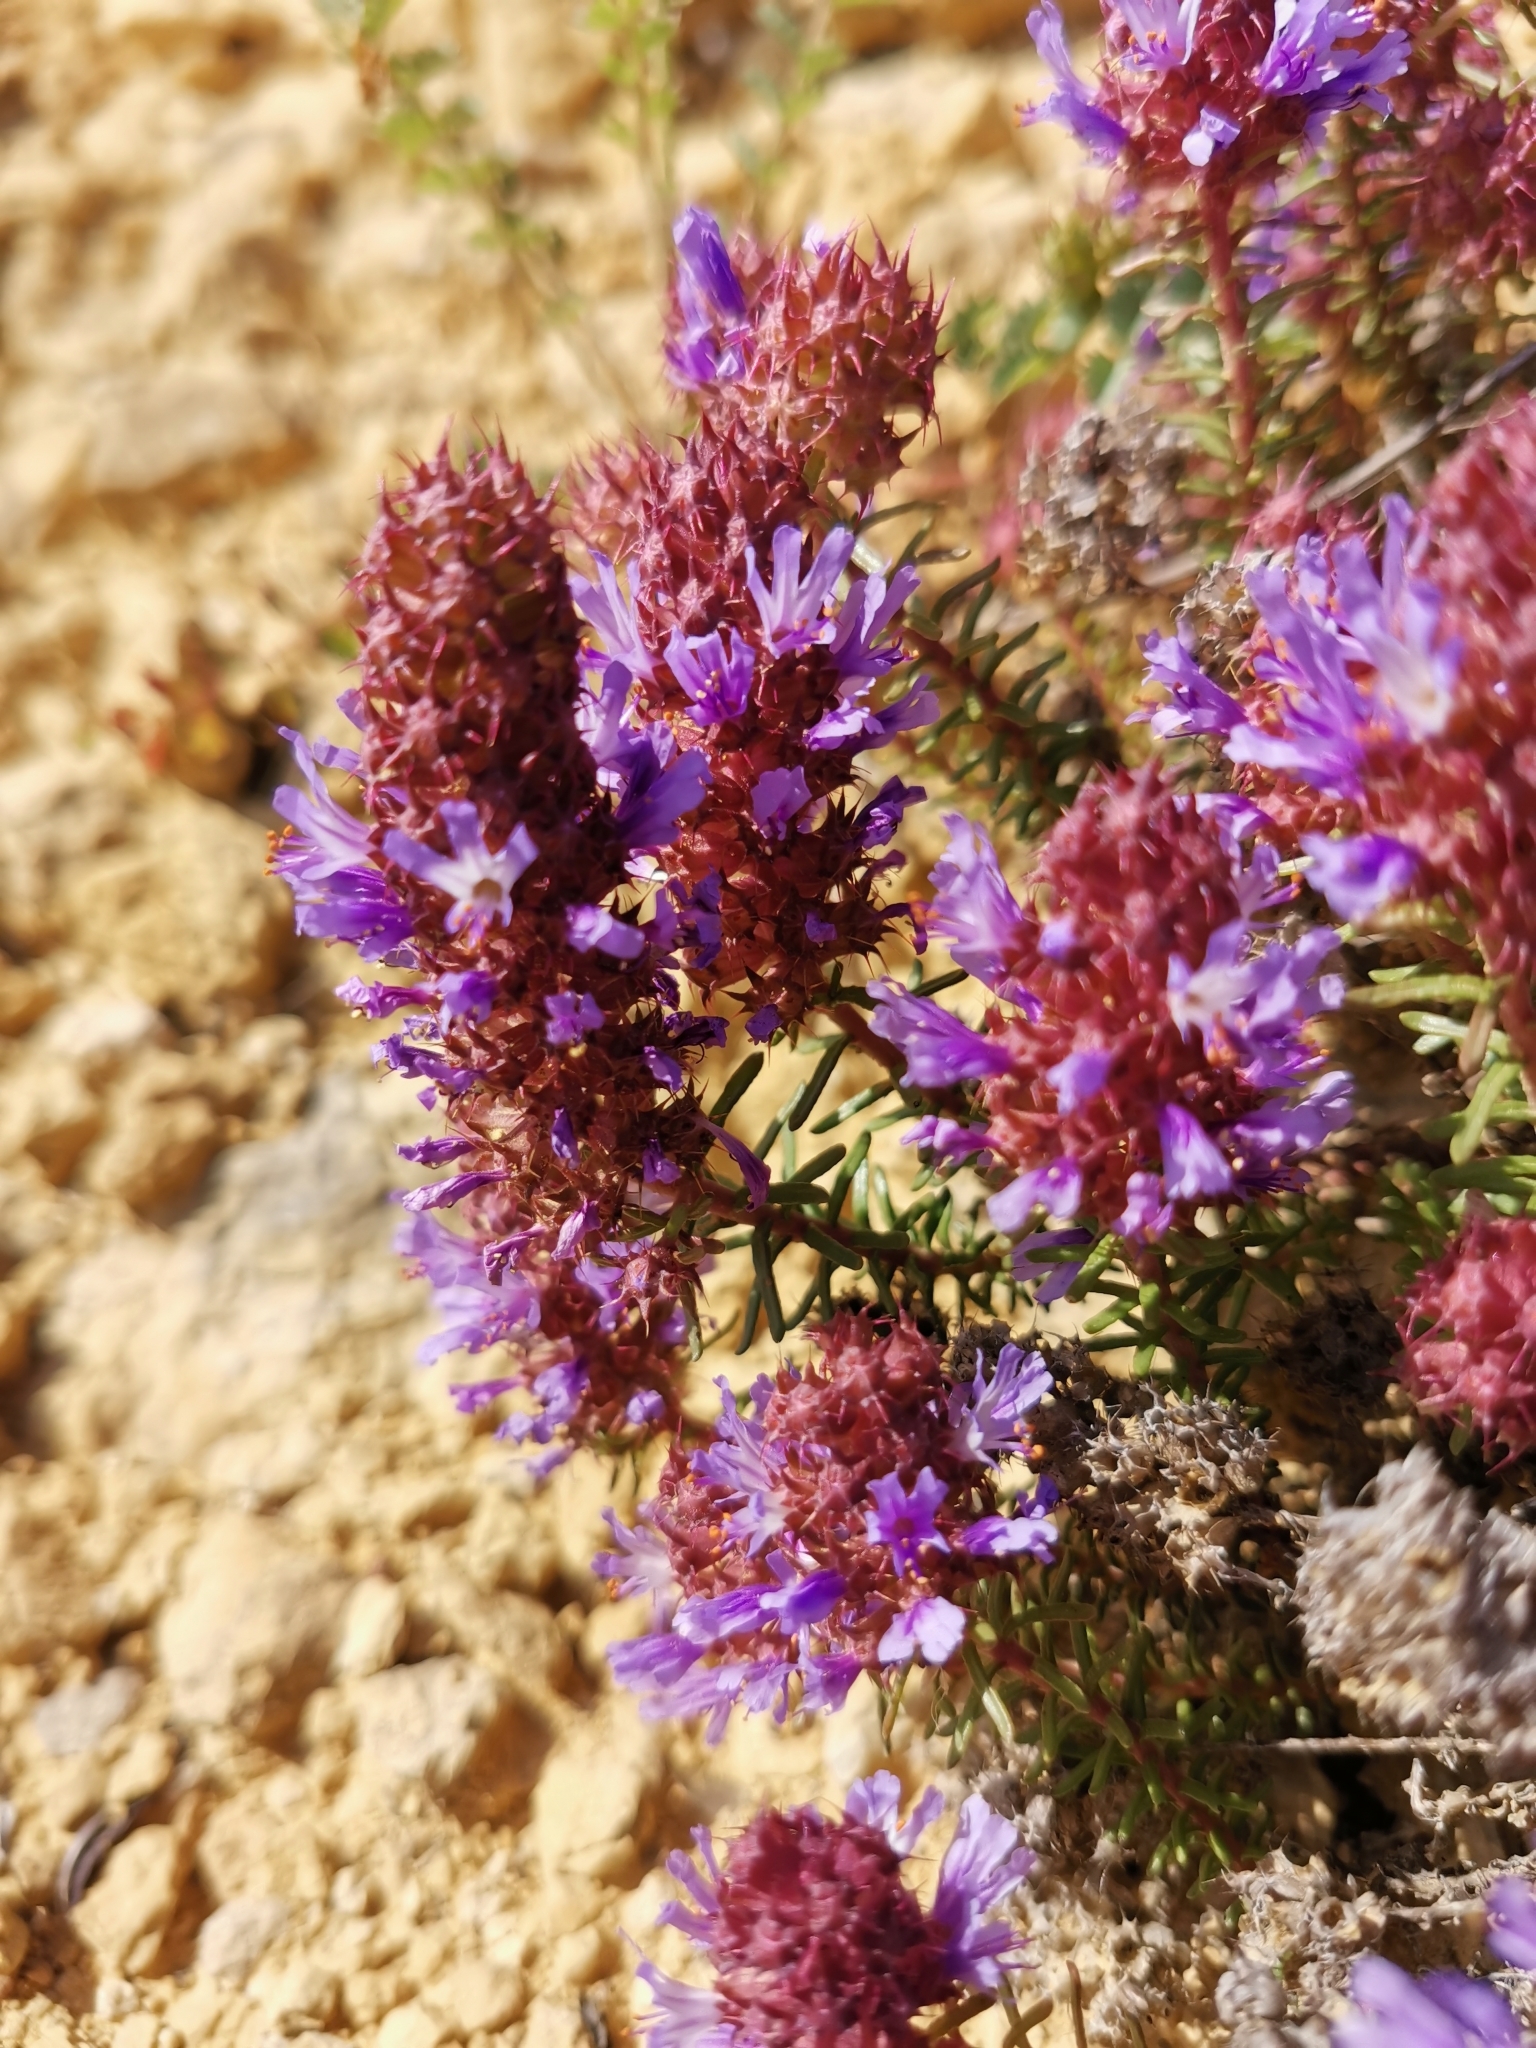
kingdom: Plantae
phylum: Tracheophyta
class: Magnoliopsida
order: Ericales
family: Primulaceae
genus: Coris
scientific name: Coris monspeliensis
